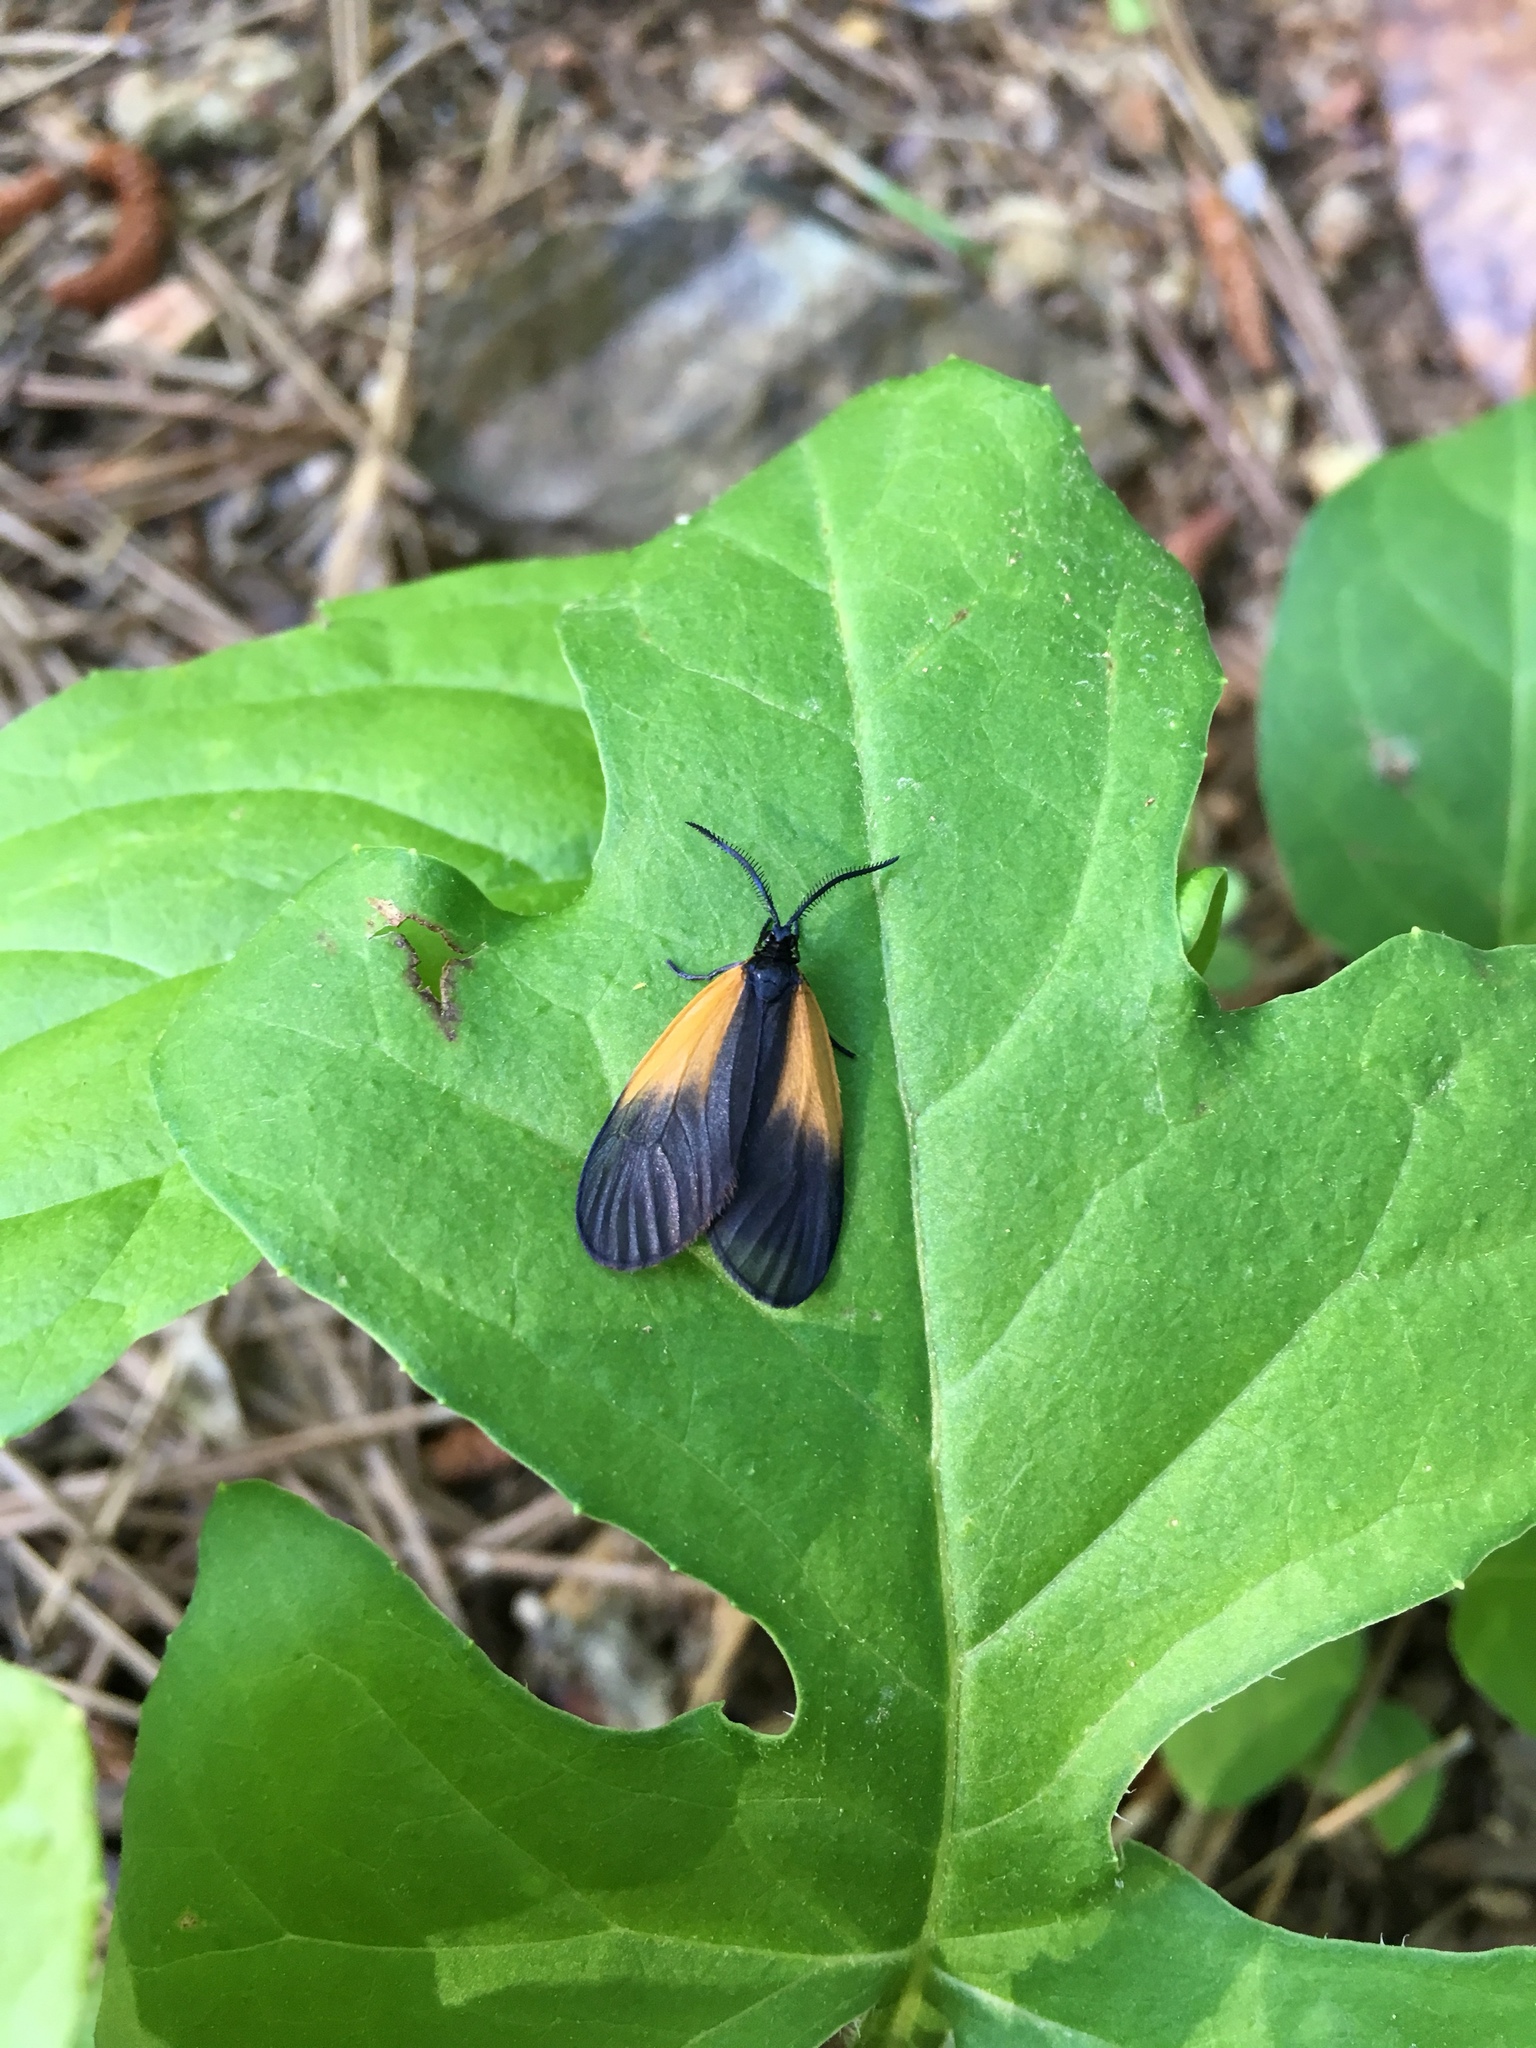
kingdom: Animalia
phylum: Arthropoda
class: Insecta
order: Lepidoptera
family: Zygaenidae
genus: Malthaca
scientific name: Malthaca dimidiata
